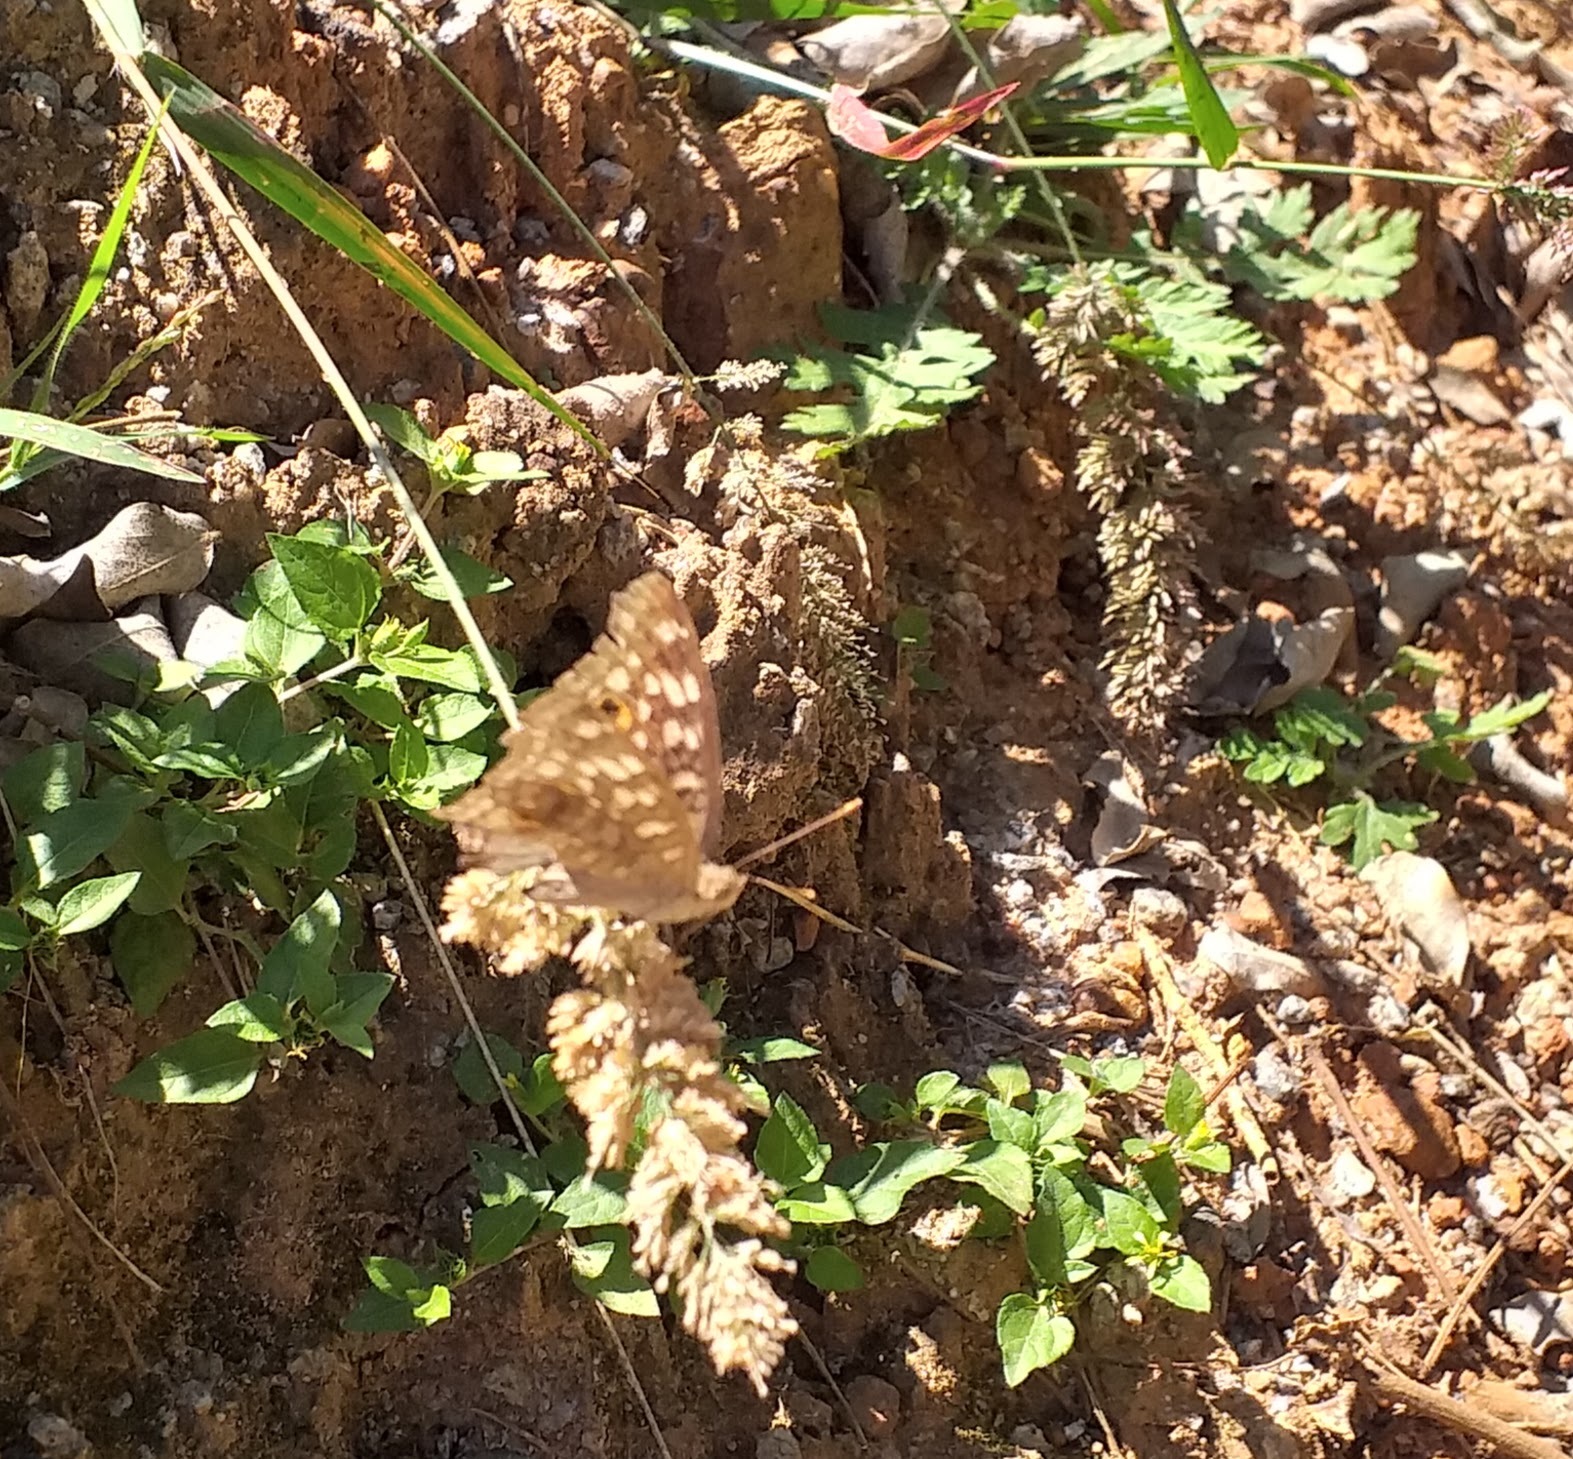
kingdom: Animalia
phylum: Arthropoda
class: Insecta
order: Lepidoptera
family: Nymphalidae
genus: Junonia
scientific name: Junonia lemonias
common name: Lemon pansy
